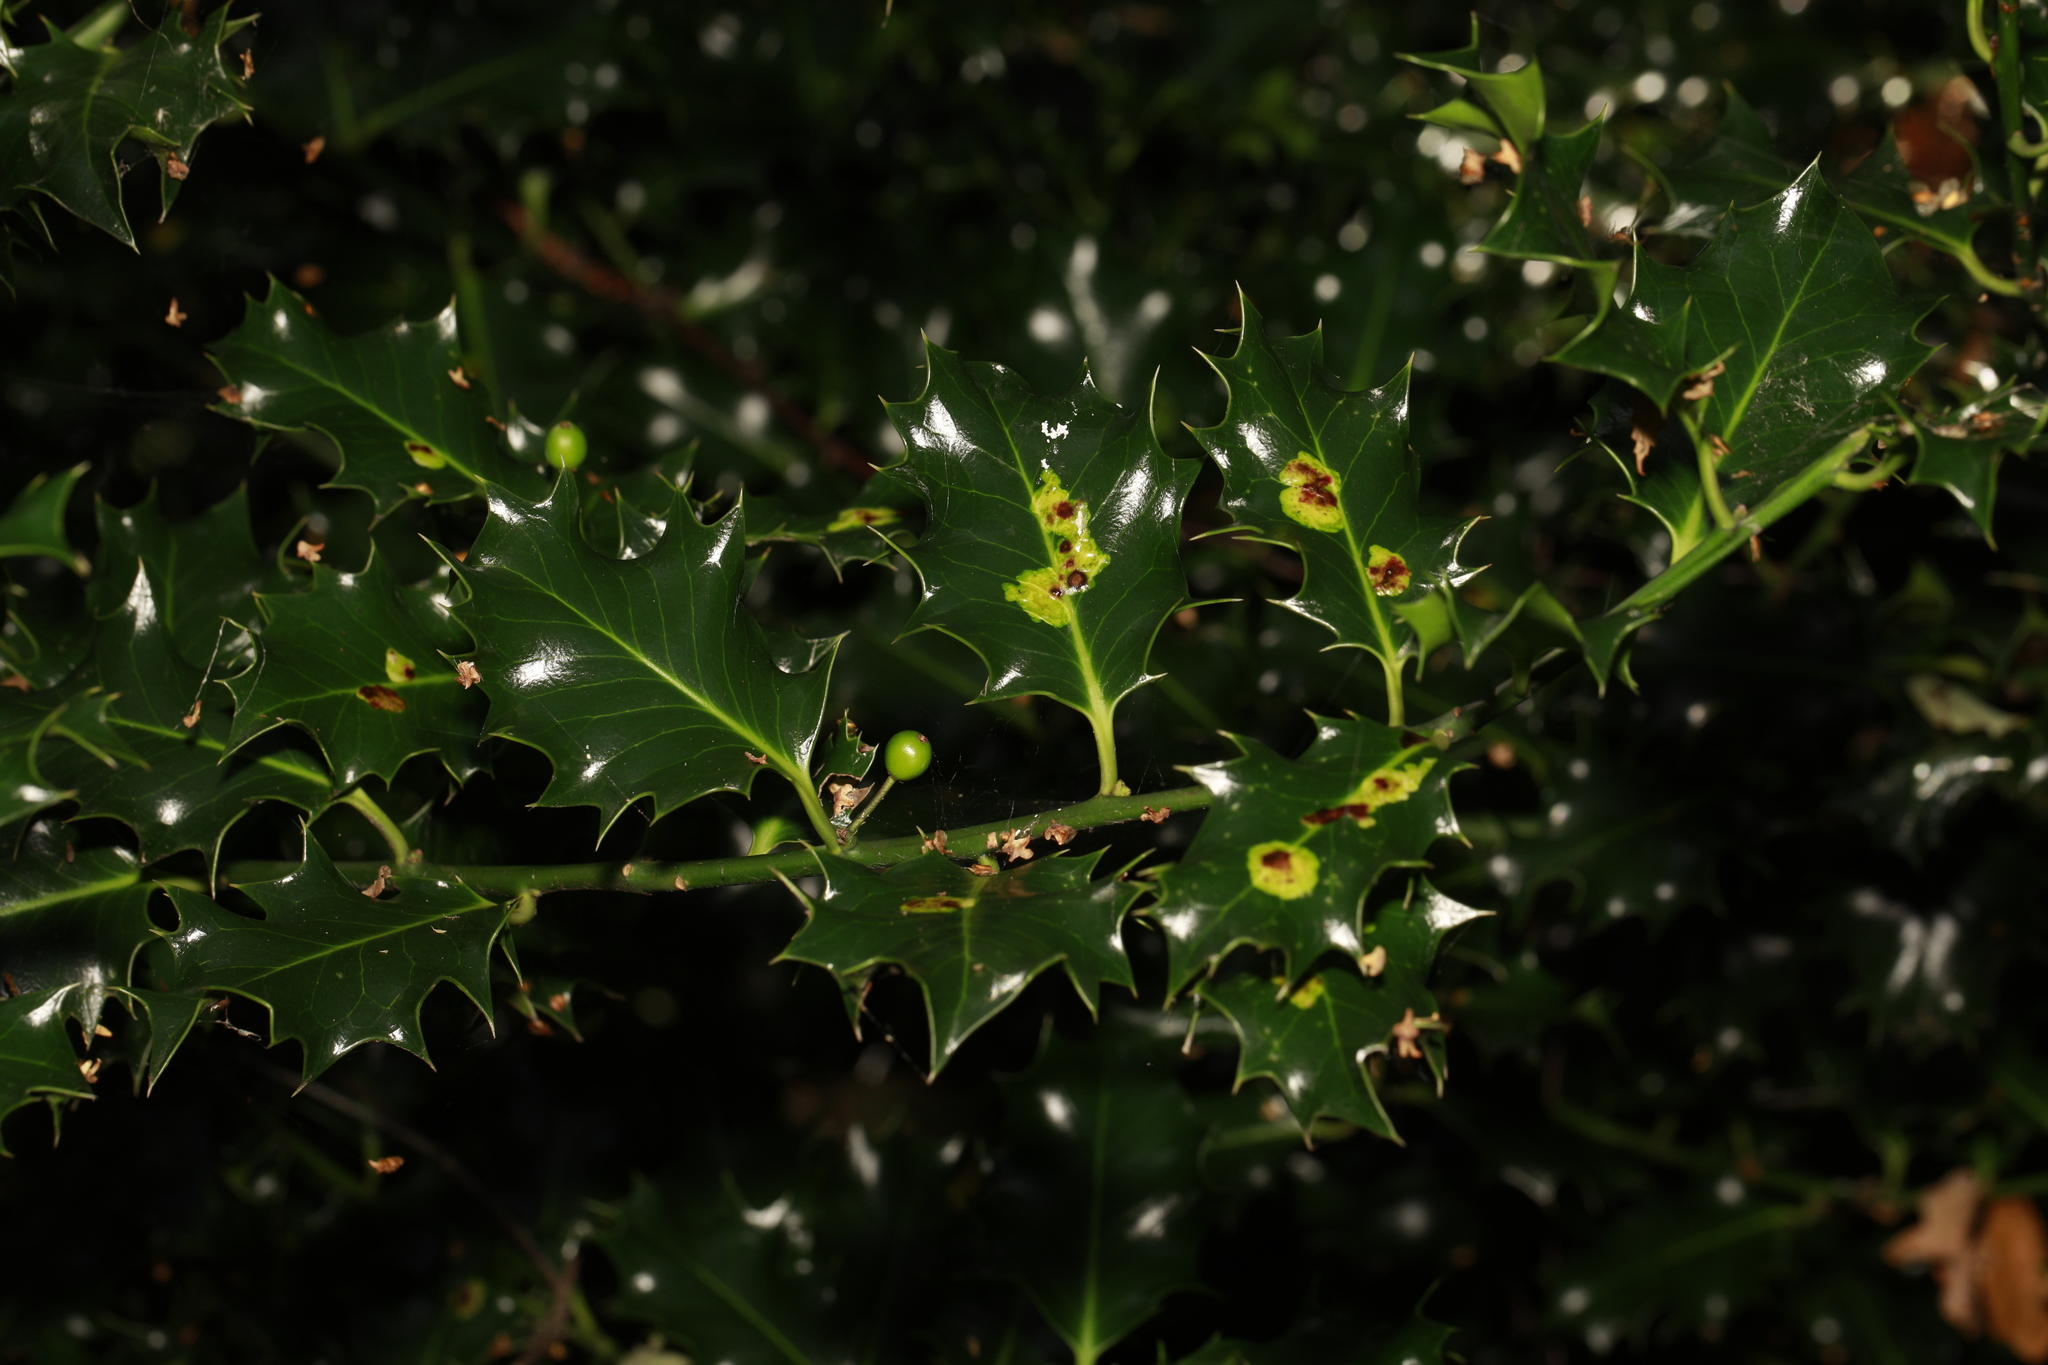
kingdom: Animalia
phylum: Arthropoda
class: Insecta
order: Diptera
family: Agromyzidae
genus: Phytomyza
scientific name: Phytomyza ilicis
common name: Holly leafminer
